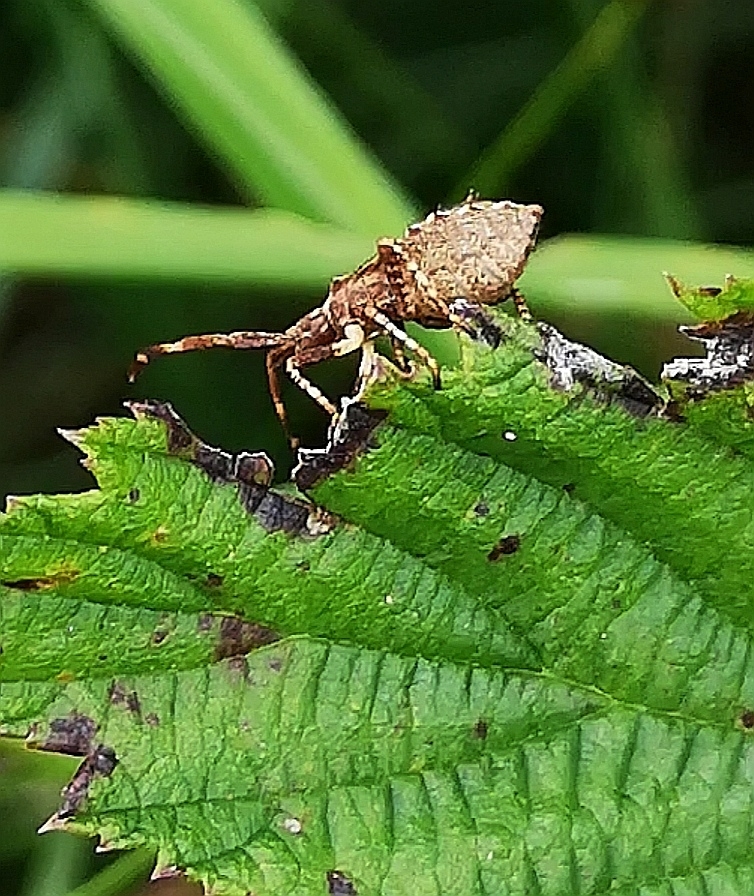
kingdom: Animalia
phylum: Arthropoda
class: Insecta
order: Hemiptera
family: Coreidae
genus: Coreus
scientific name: Coreus marginatus
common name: Dock bug
